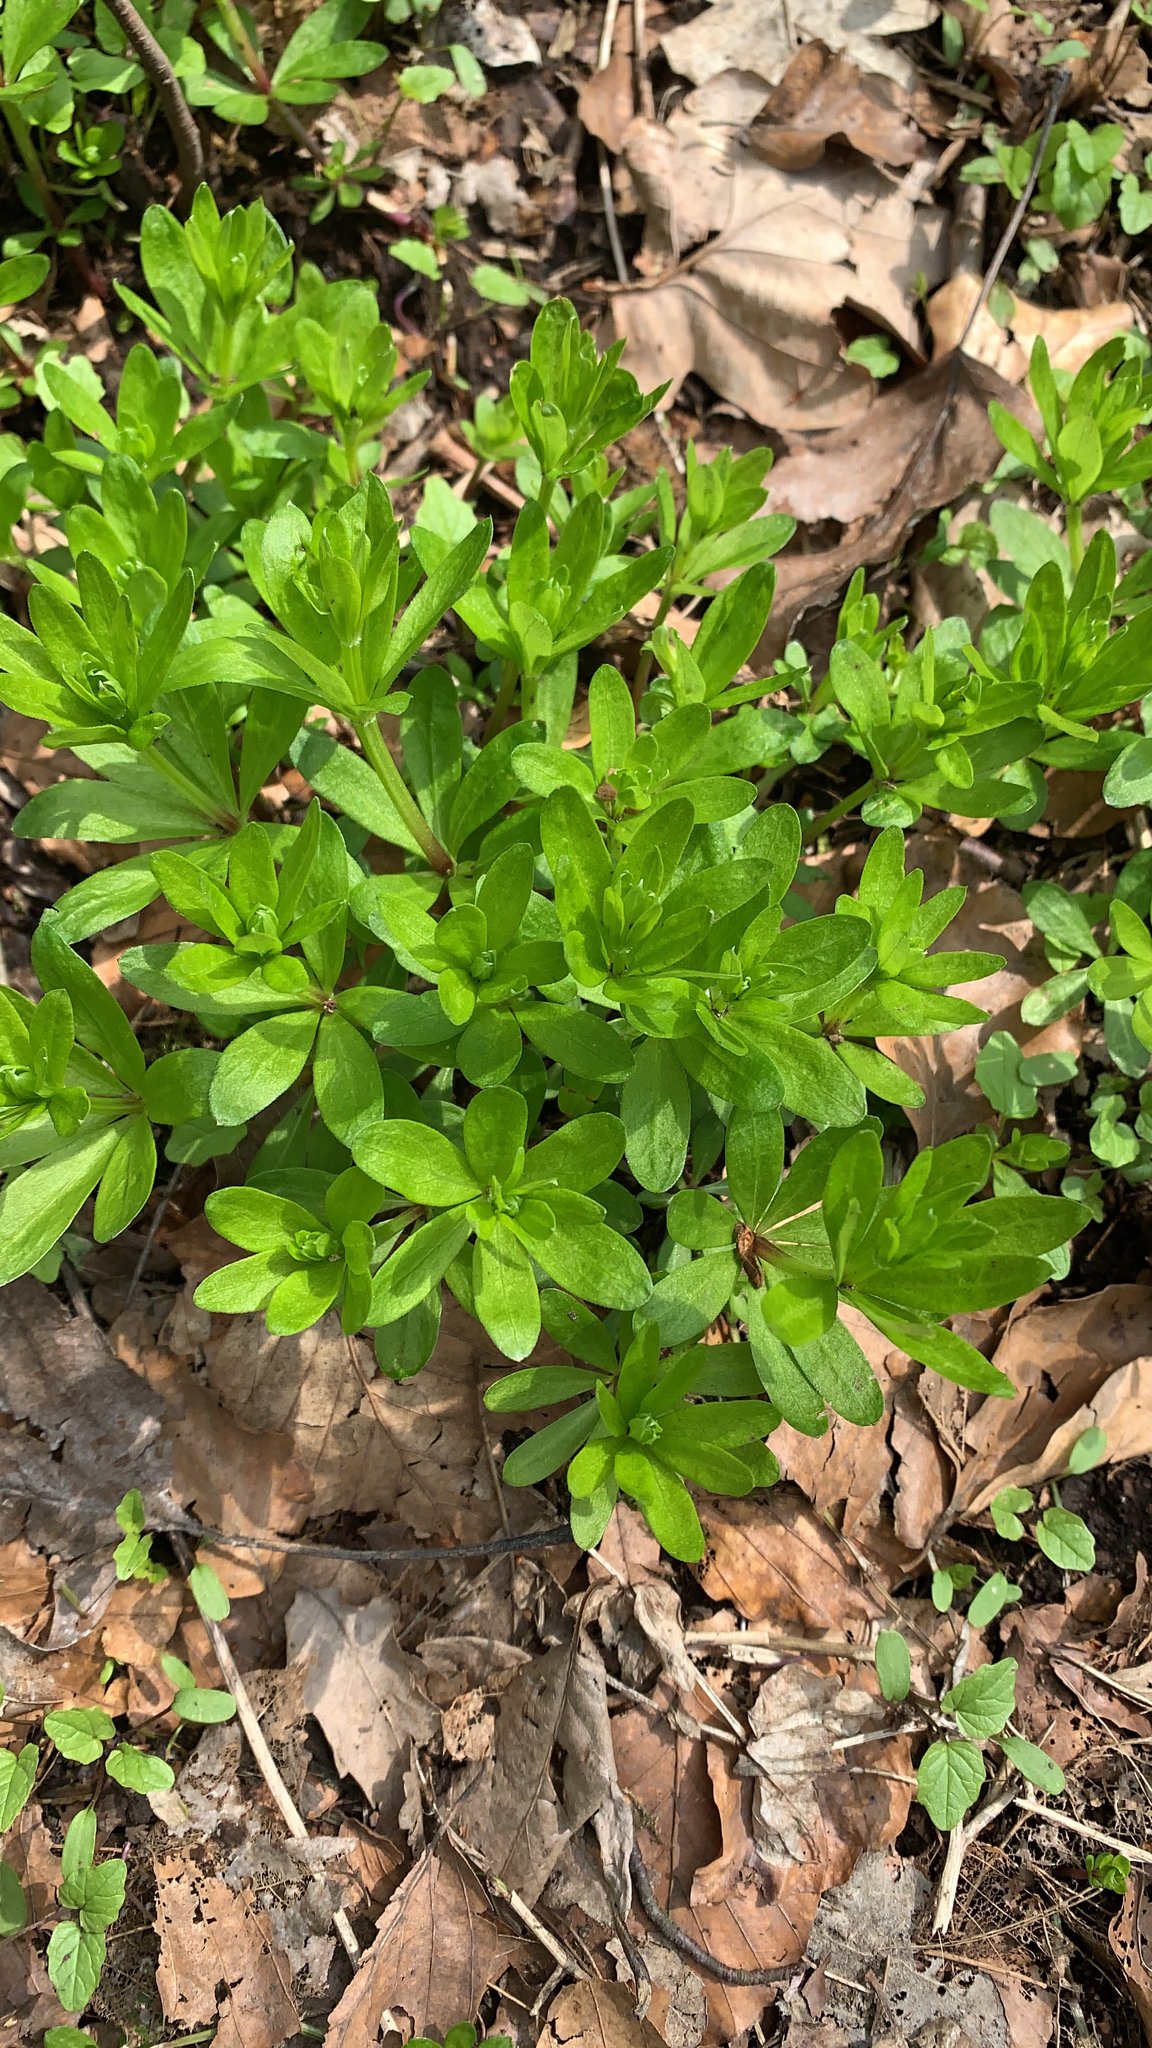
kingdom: Plantae
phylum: Tracheophyta
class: Magnoliopsida
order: Gentianales
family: Rubiaceae
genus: Galium
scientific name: Galium odoratum
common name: Sweet woodruff
